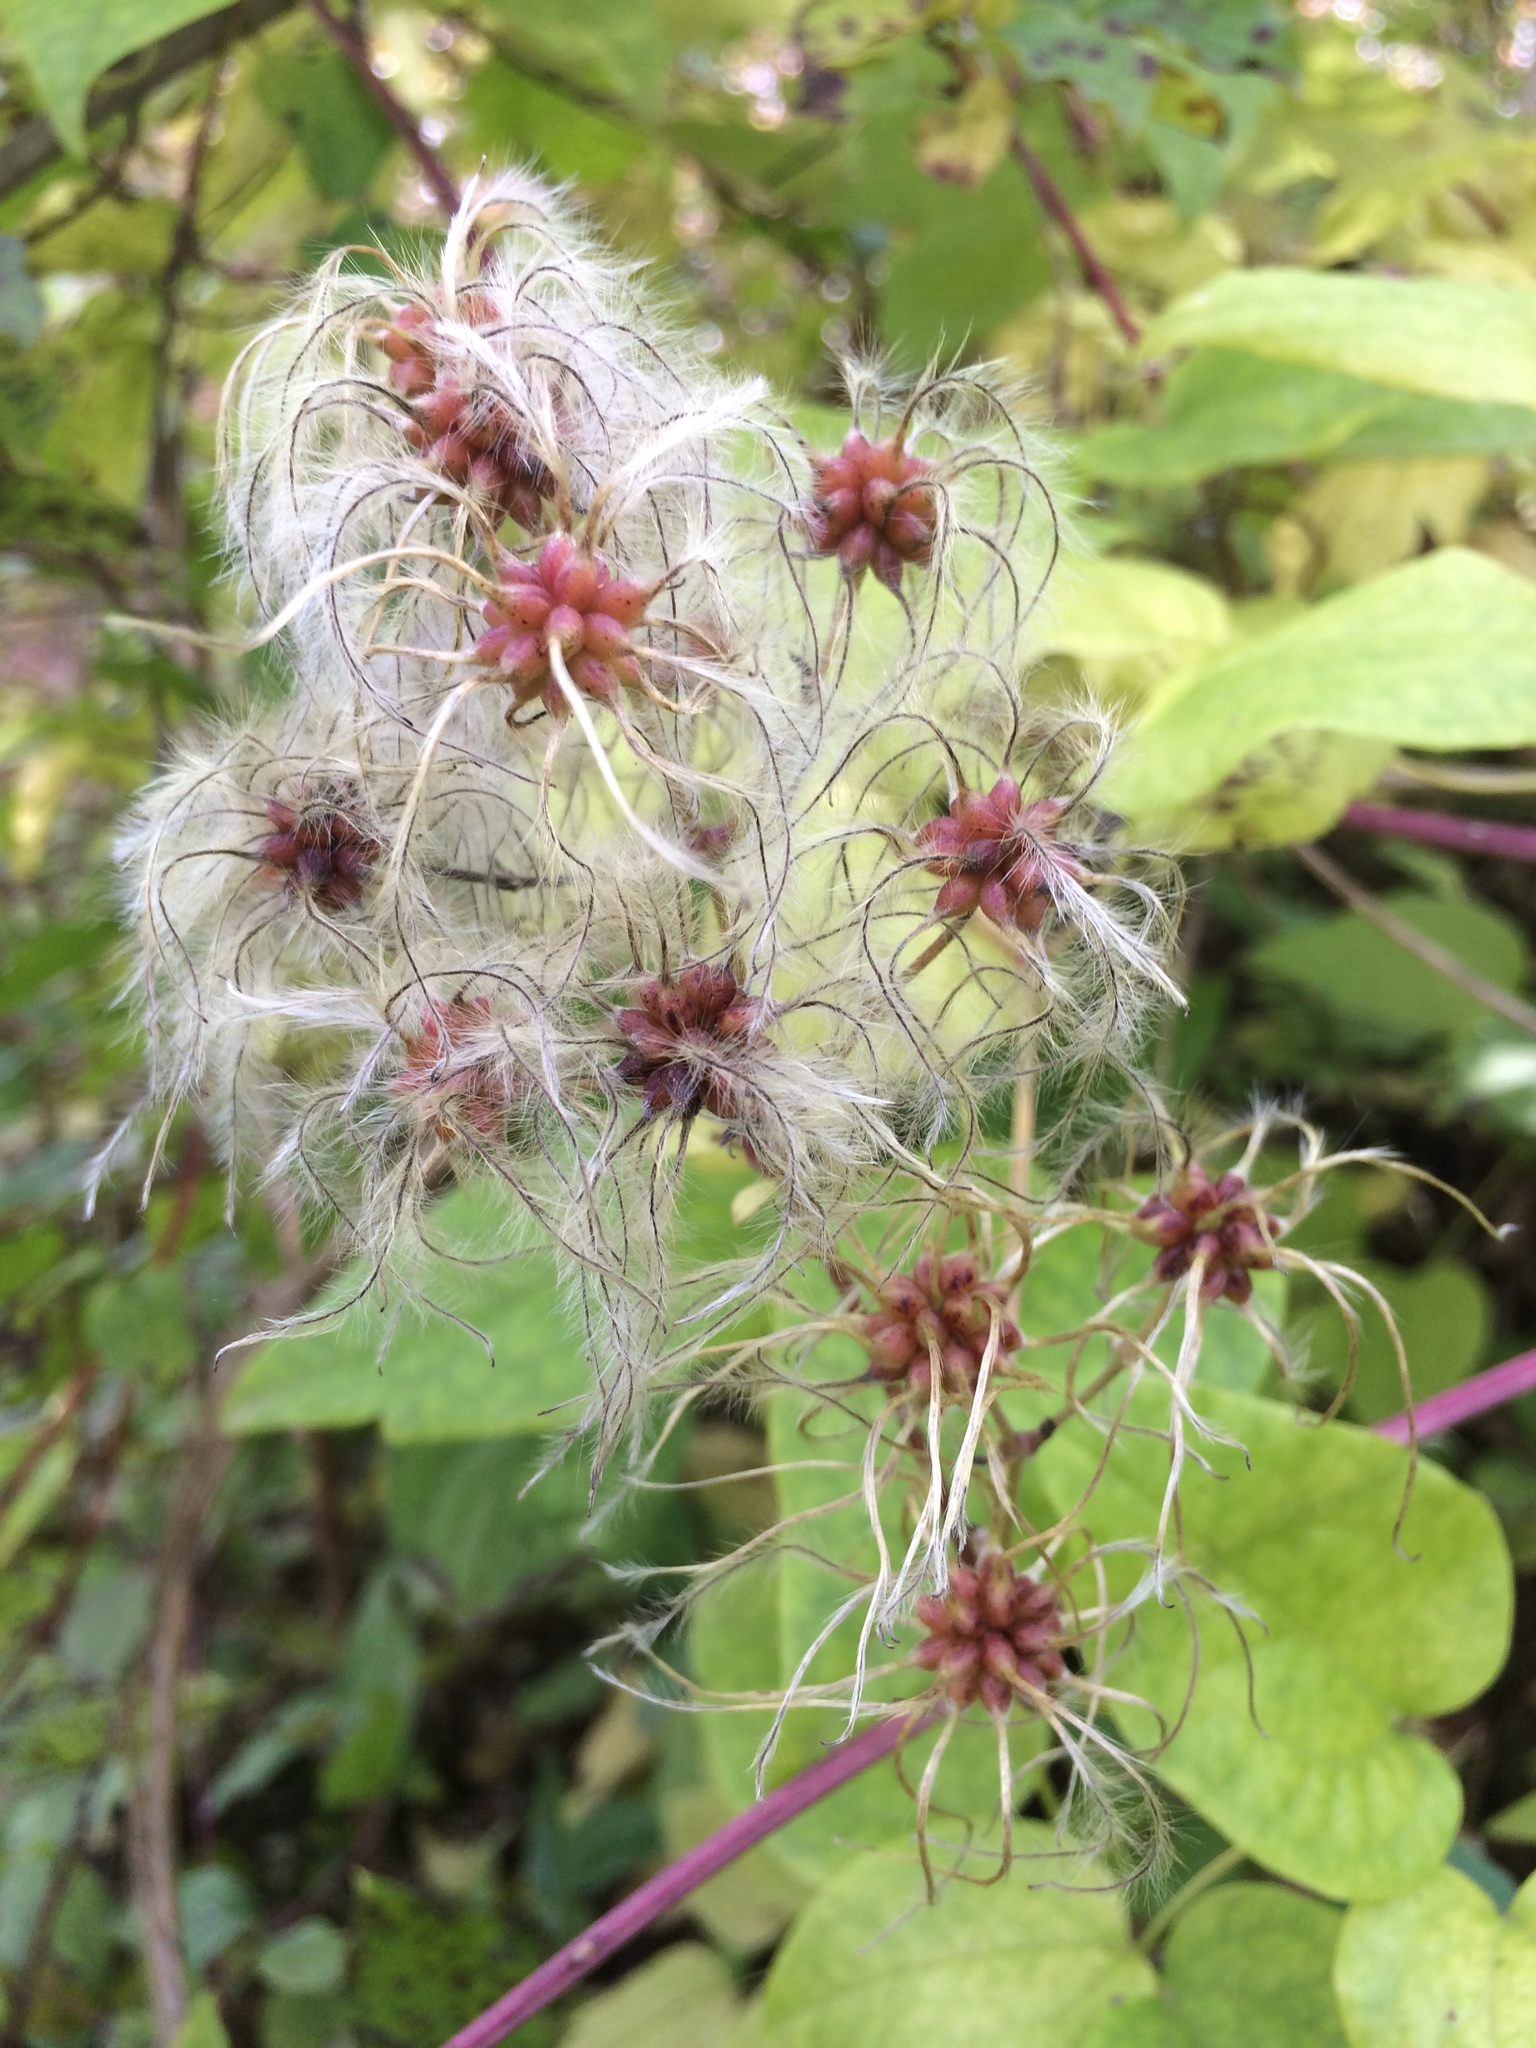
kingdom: Plantae
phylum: Tracheophyta
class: Magnoliopsida
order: Ranunculales
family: Ranunculaceae
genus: Clematis
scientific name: Clematis vitalba
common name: Evergreen clematis
